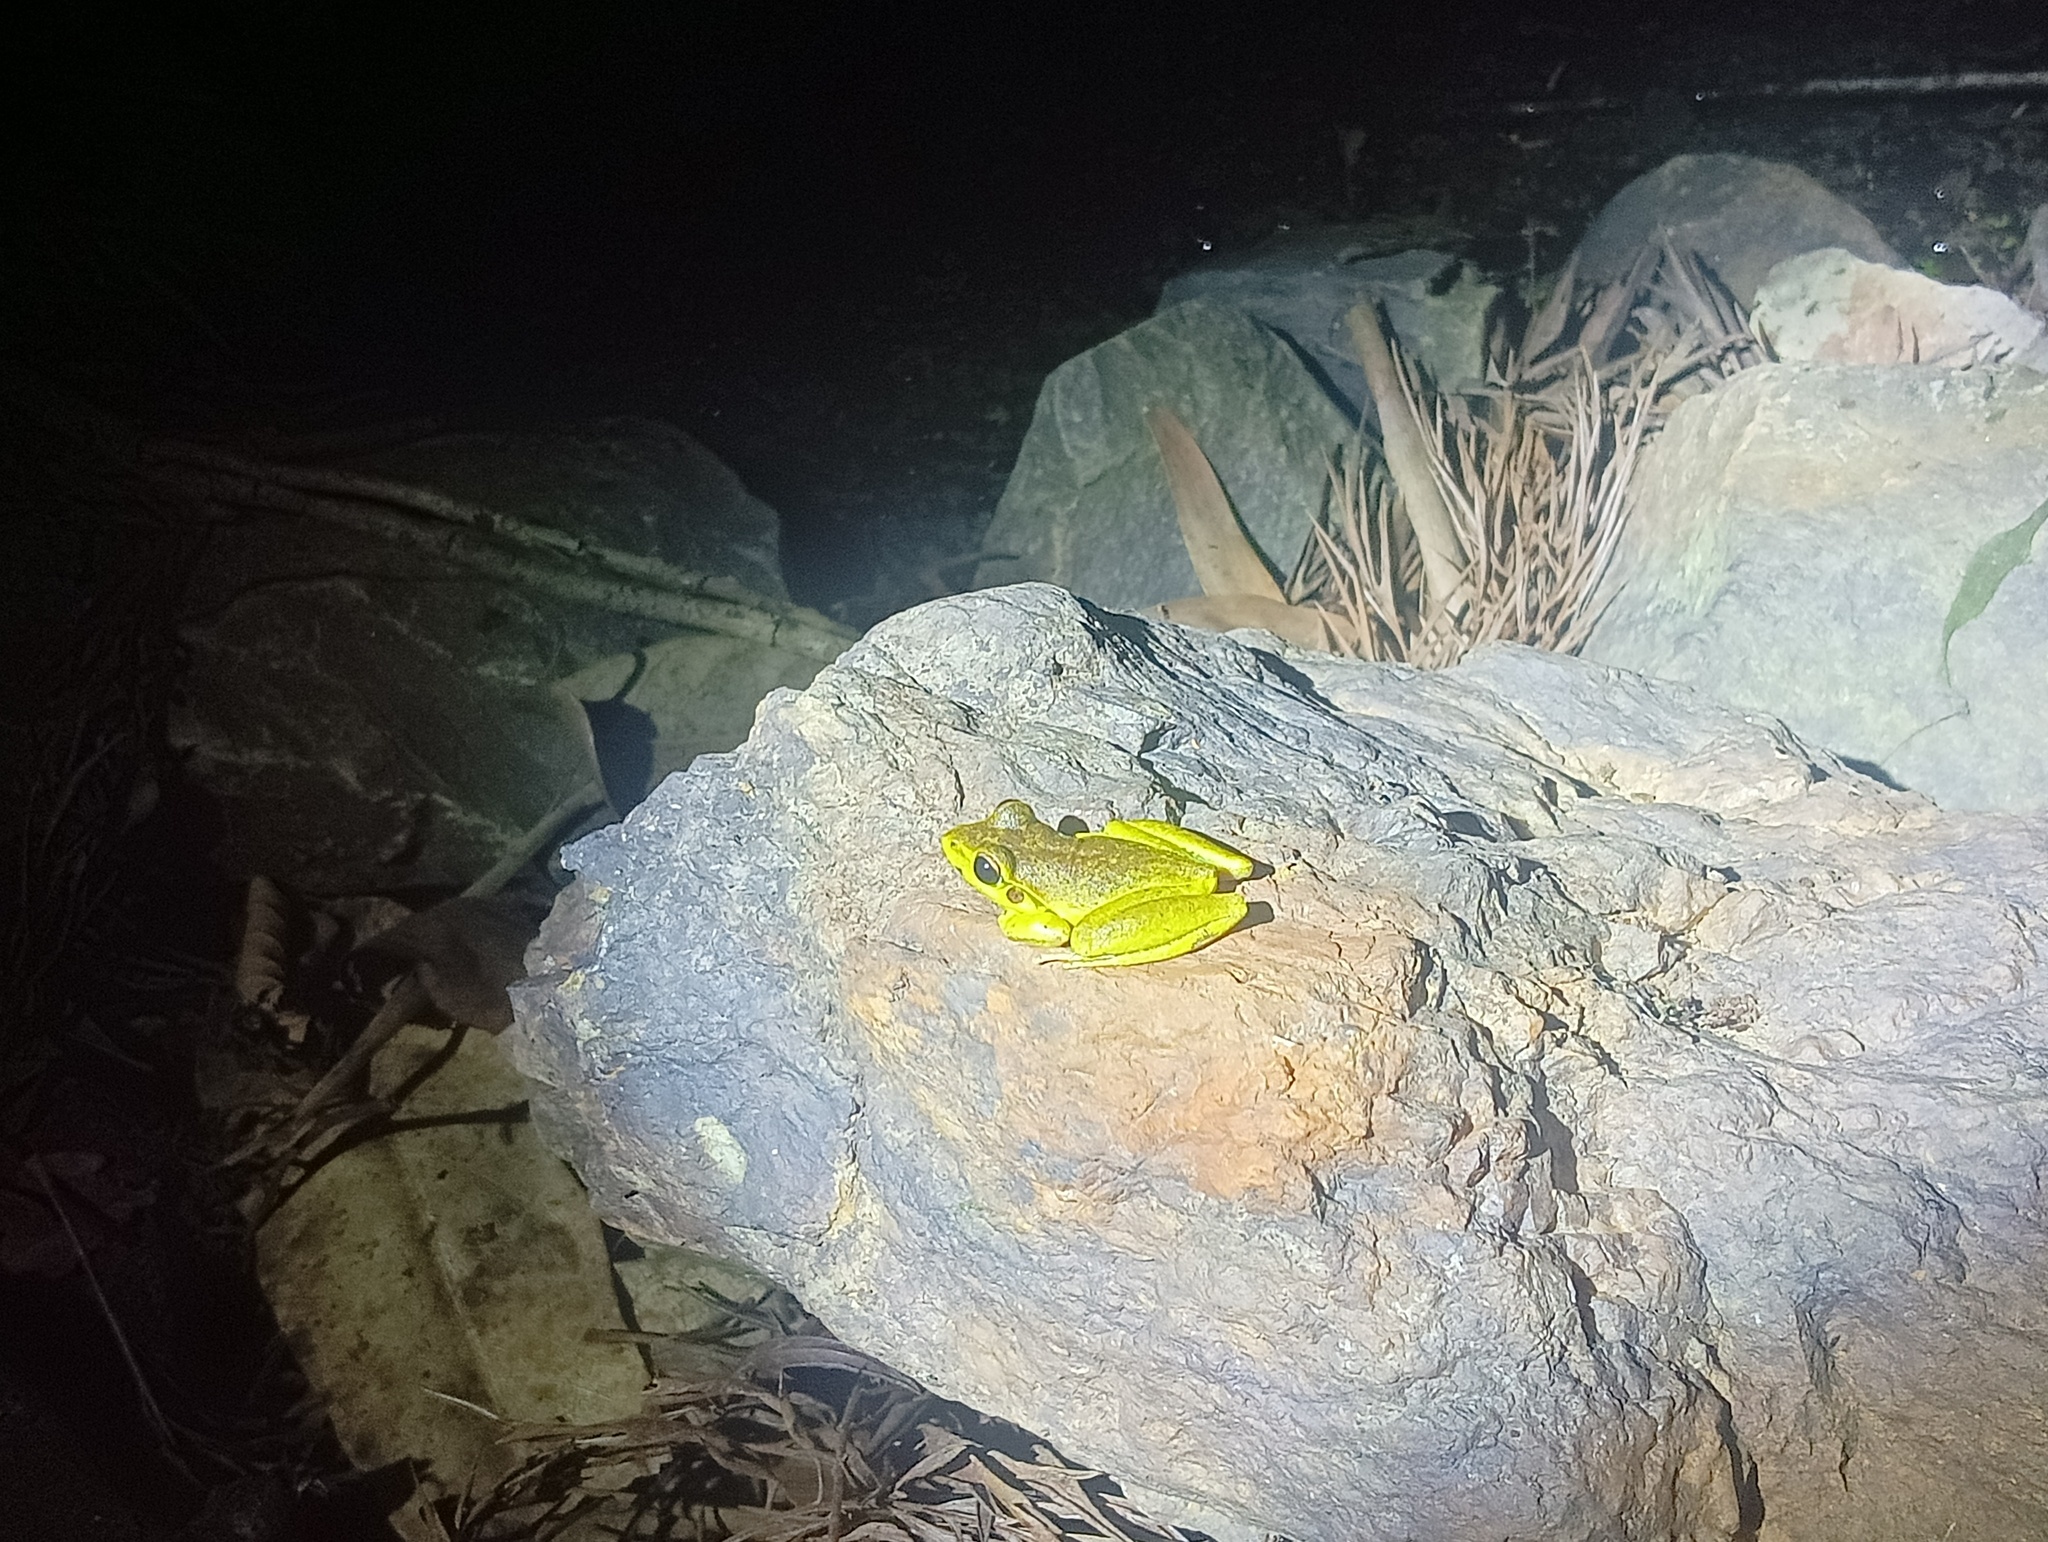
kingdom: Animalia
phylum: Chordata
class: Amphibia
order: Anura
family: Pelodryadidae
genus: Ranoidea
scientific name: Ranoidea wilcoxii
